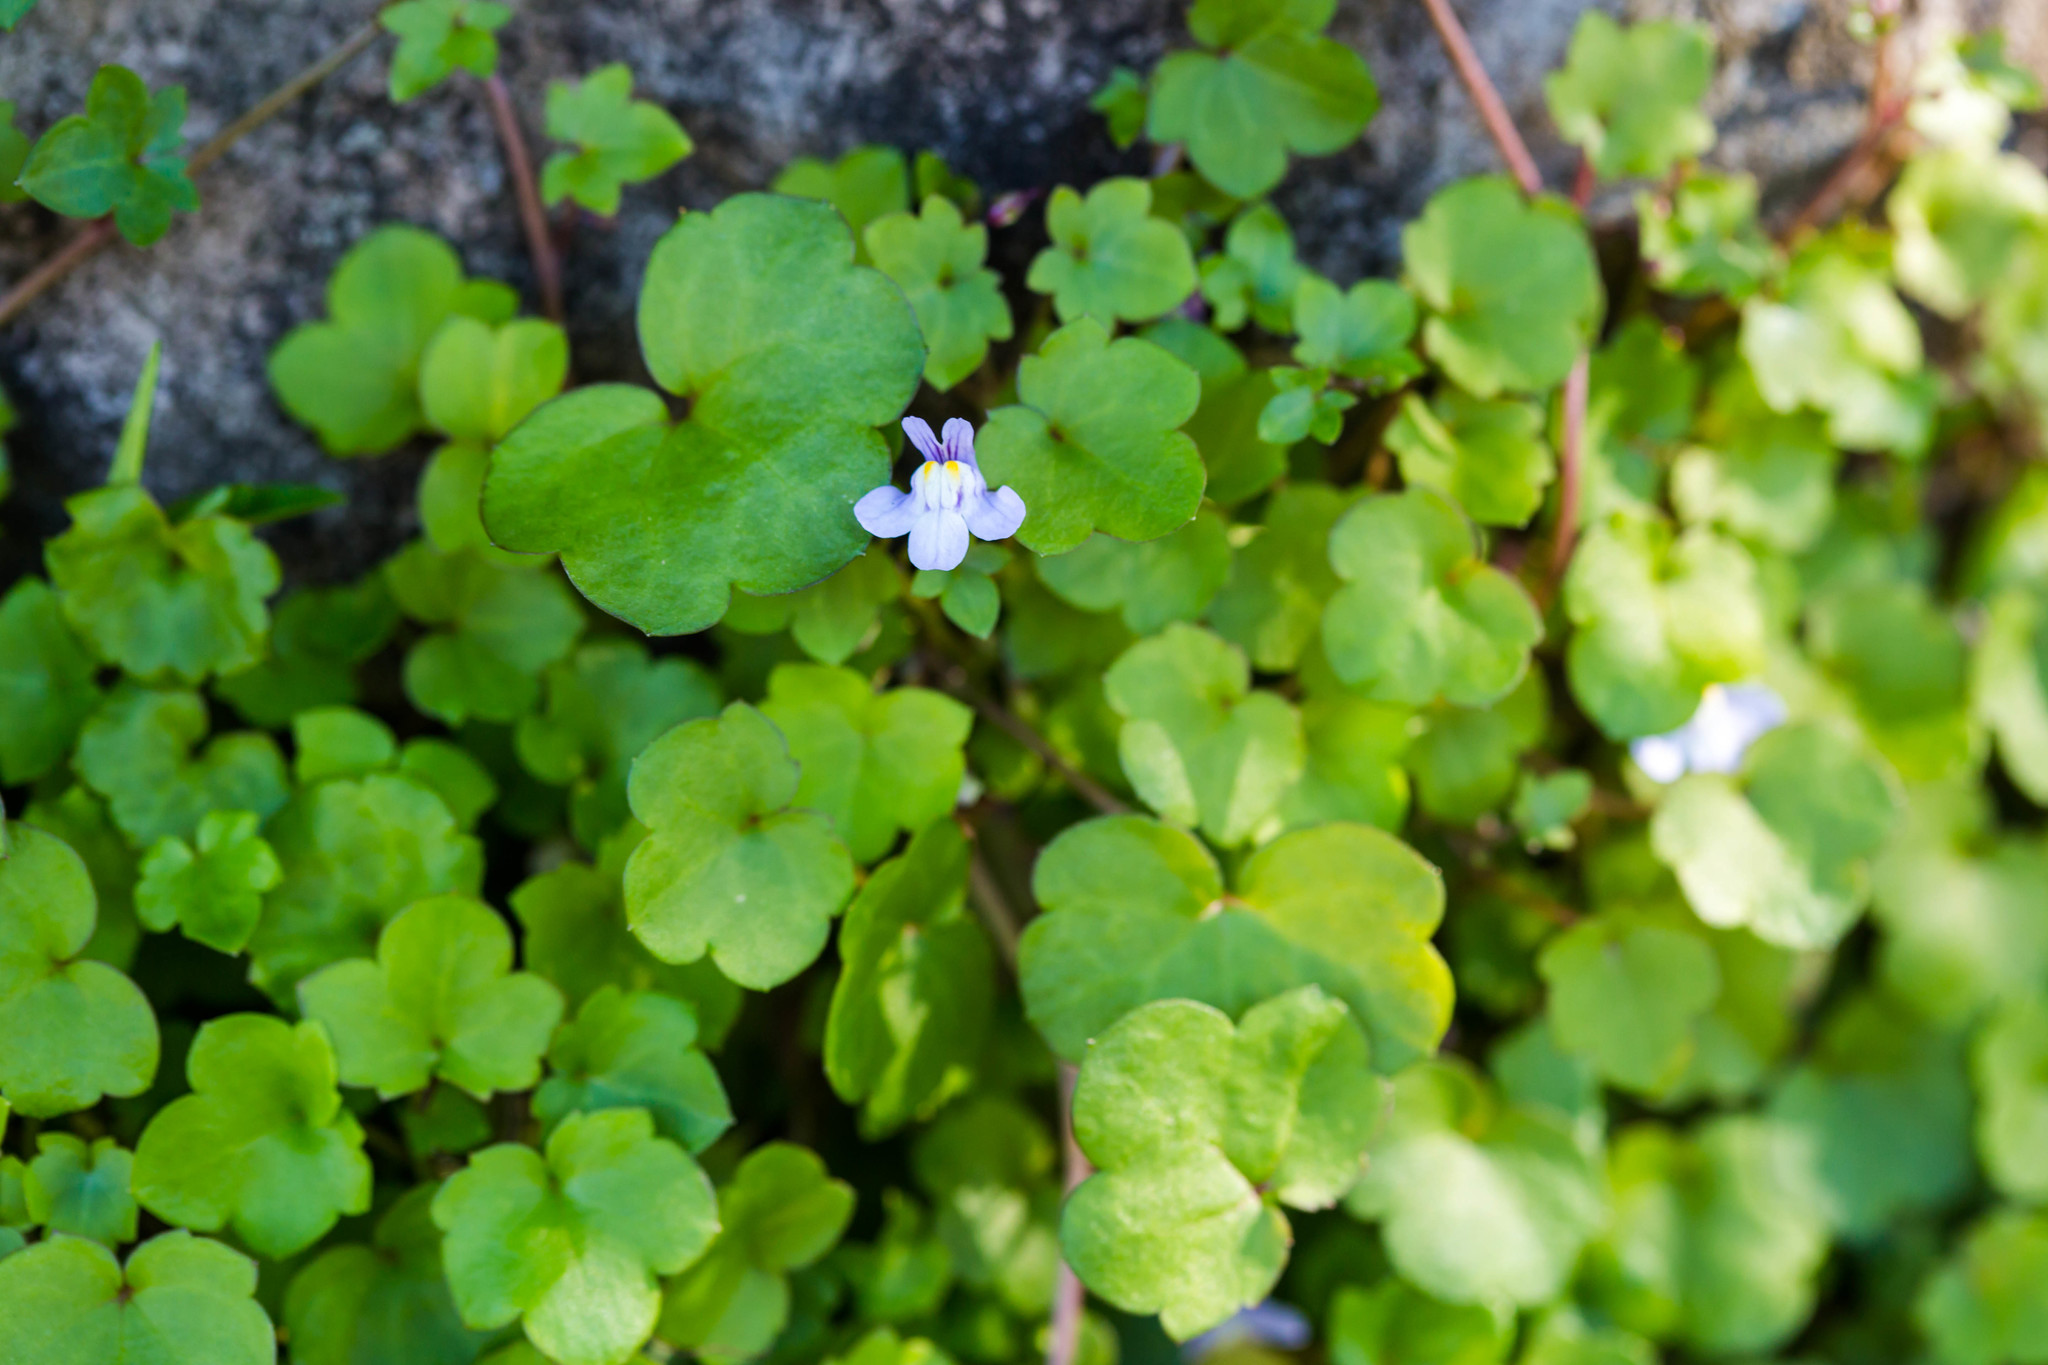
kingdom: Plantae
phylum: Tracheophyta
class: Magnoliopsida
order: Lamiales
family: Plantaginaceae
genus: Cymbalaria
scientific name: Cymbalaria muralis
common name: Ivy-leaved toadflax
